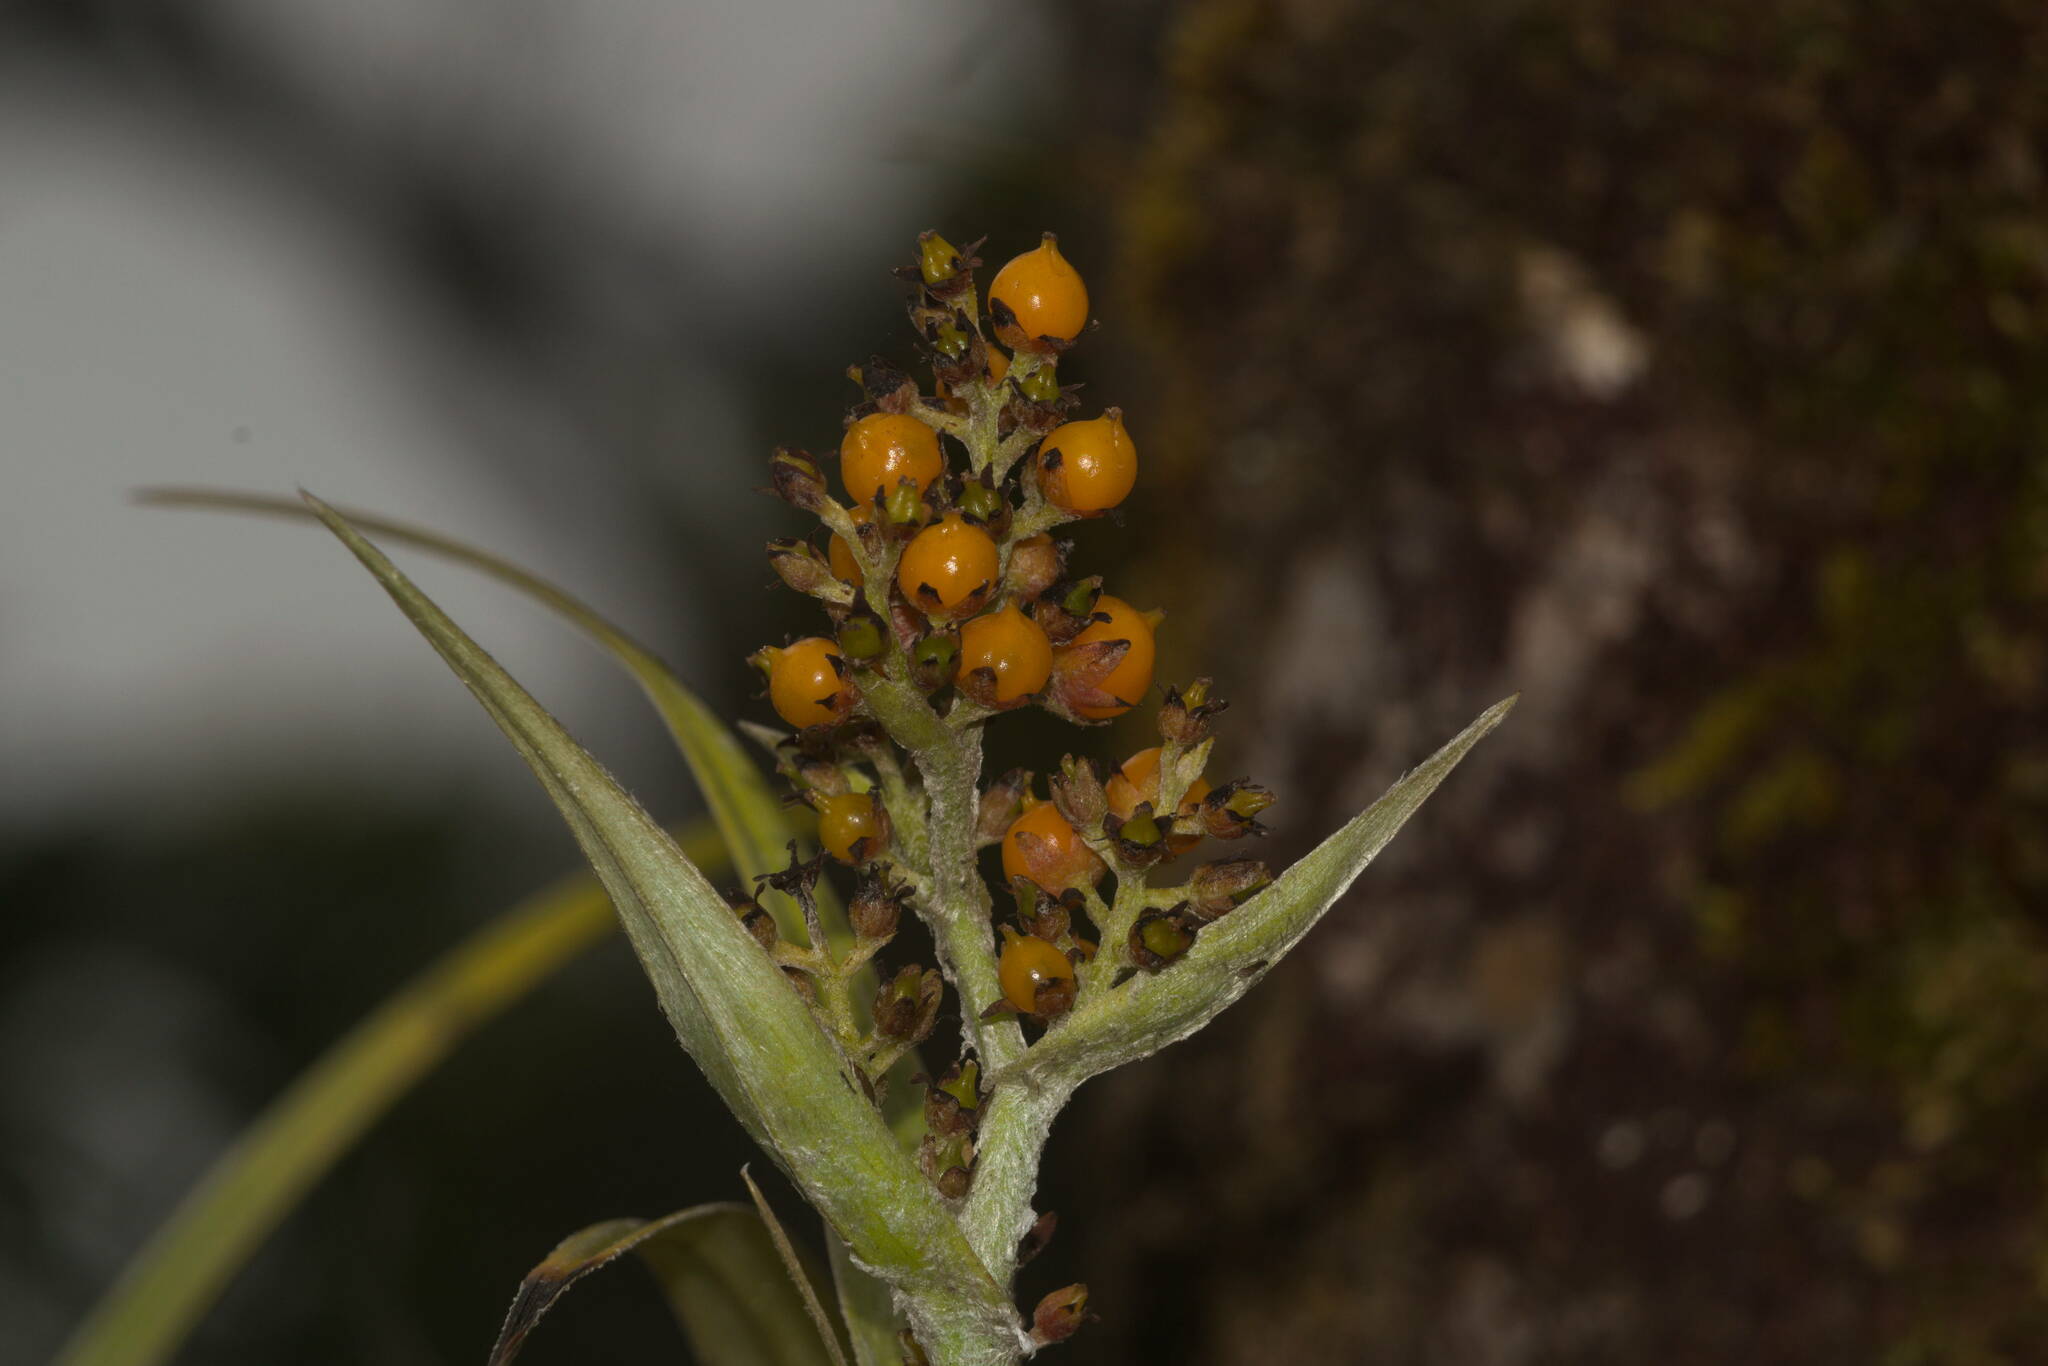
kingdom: Plantae
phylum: Tracheophyta
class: Liliopsida
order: Asparagales
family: Asteliaceae
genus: Astelia
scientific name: Astelia argyrocoma
